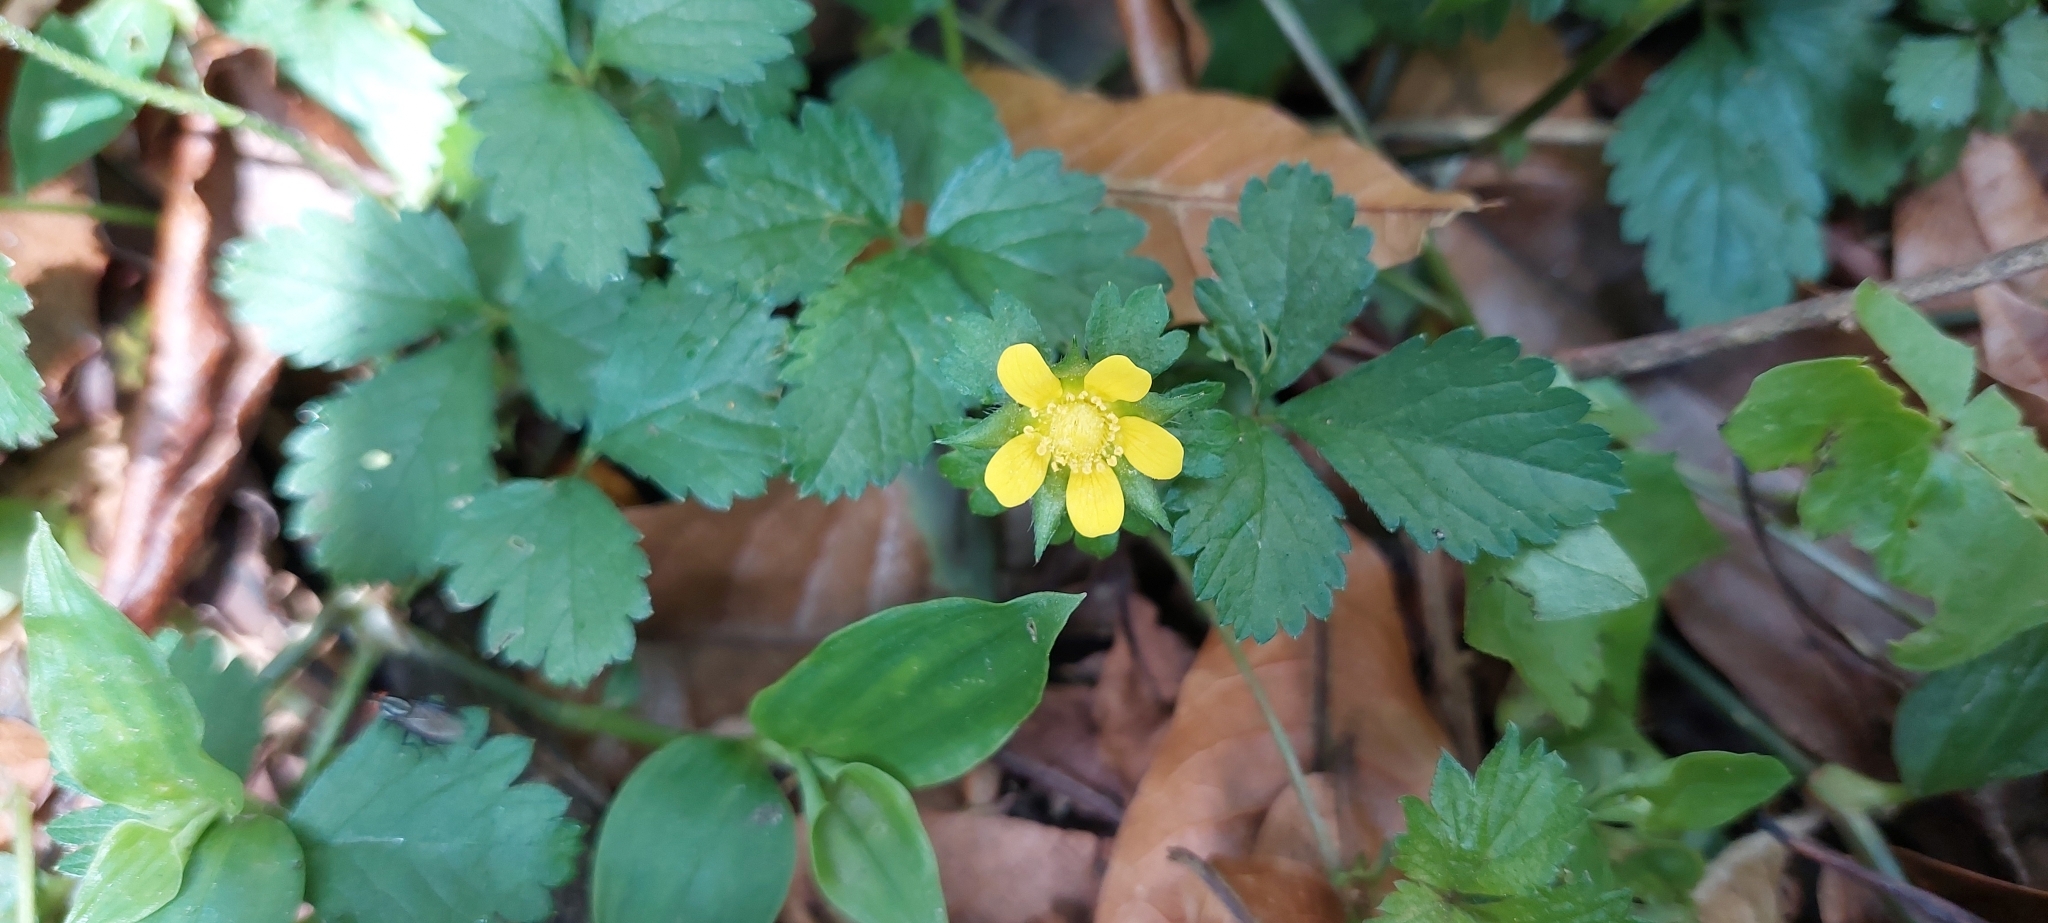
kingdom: Plantae
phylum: Tracheophyta
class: Magnoliopsida
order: Rosales
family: Rosaceae
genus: Potentilla
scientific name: Potentilla indica
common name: Yellow-flowered strawberry
